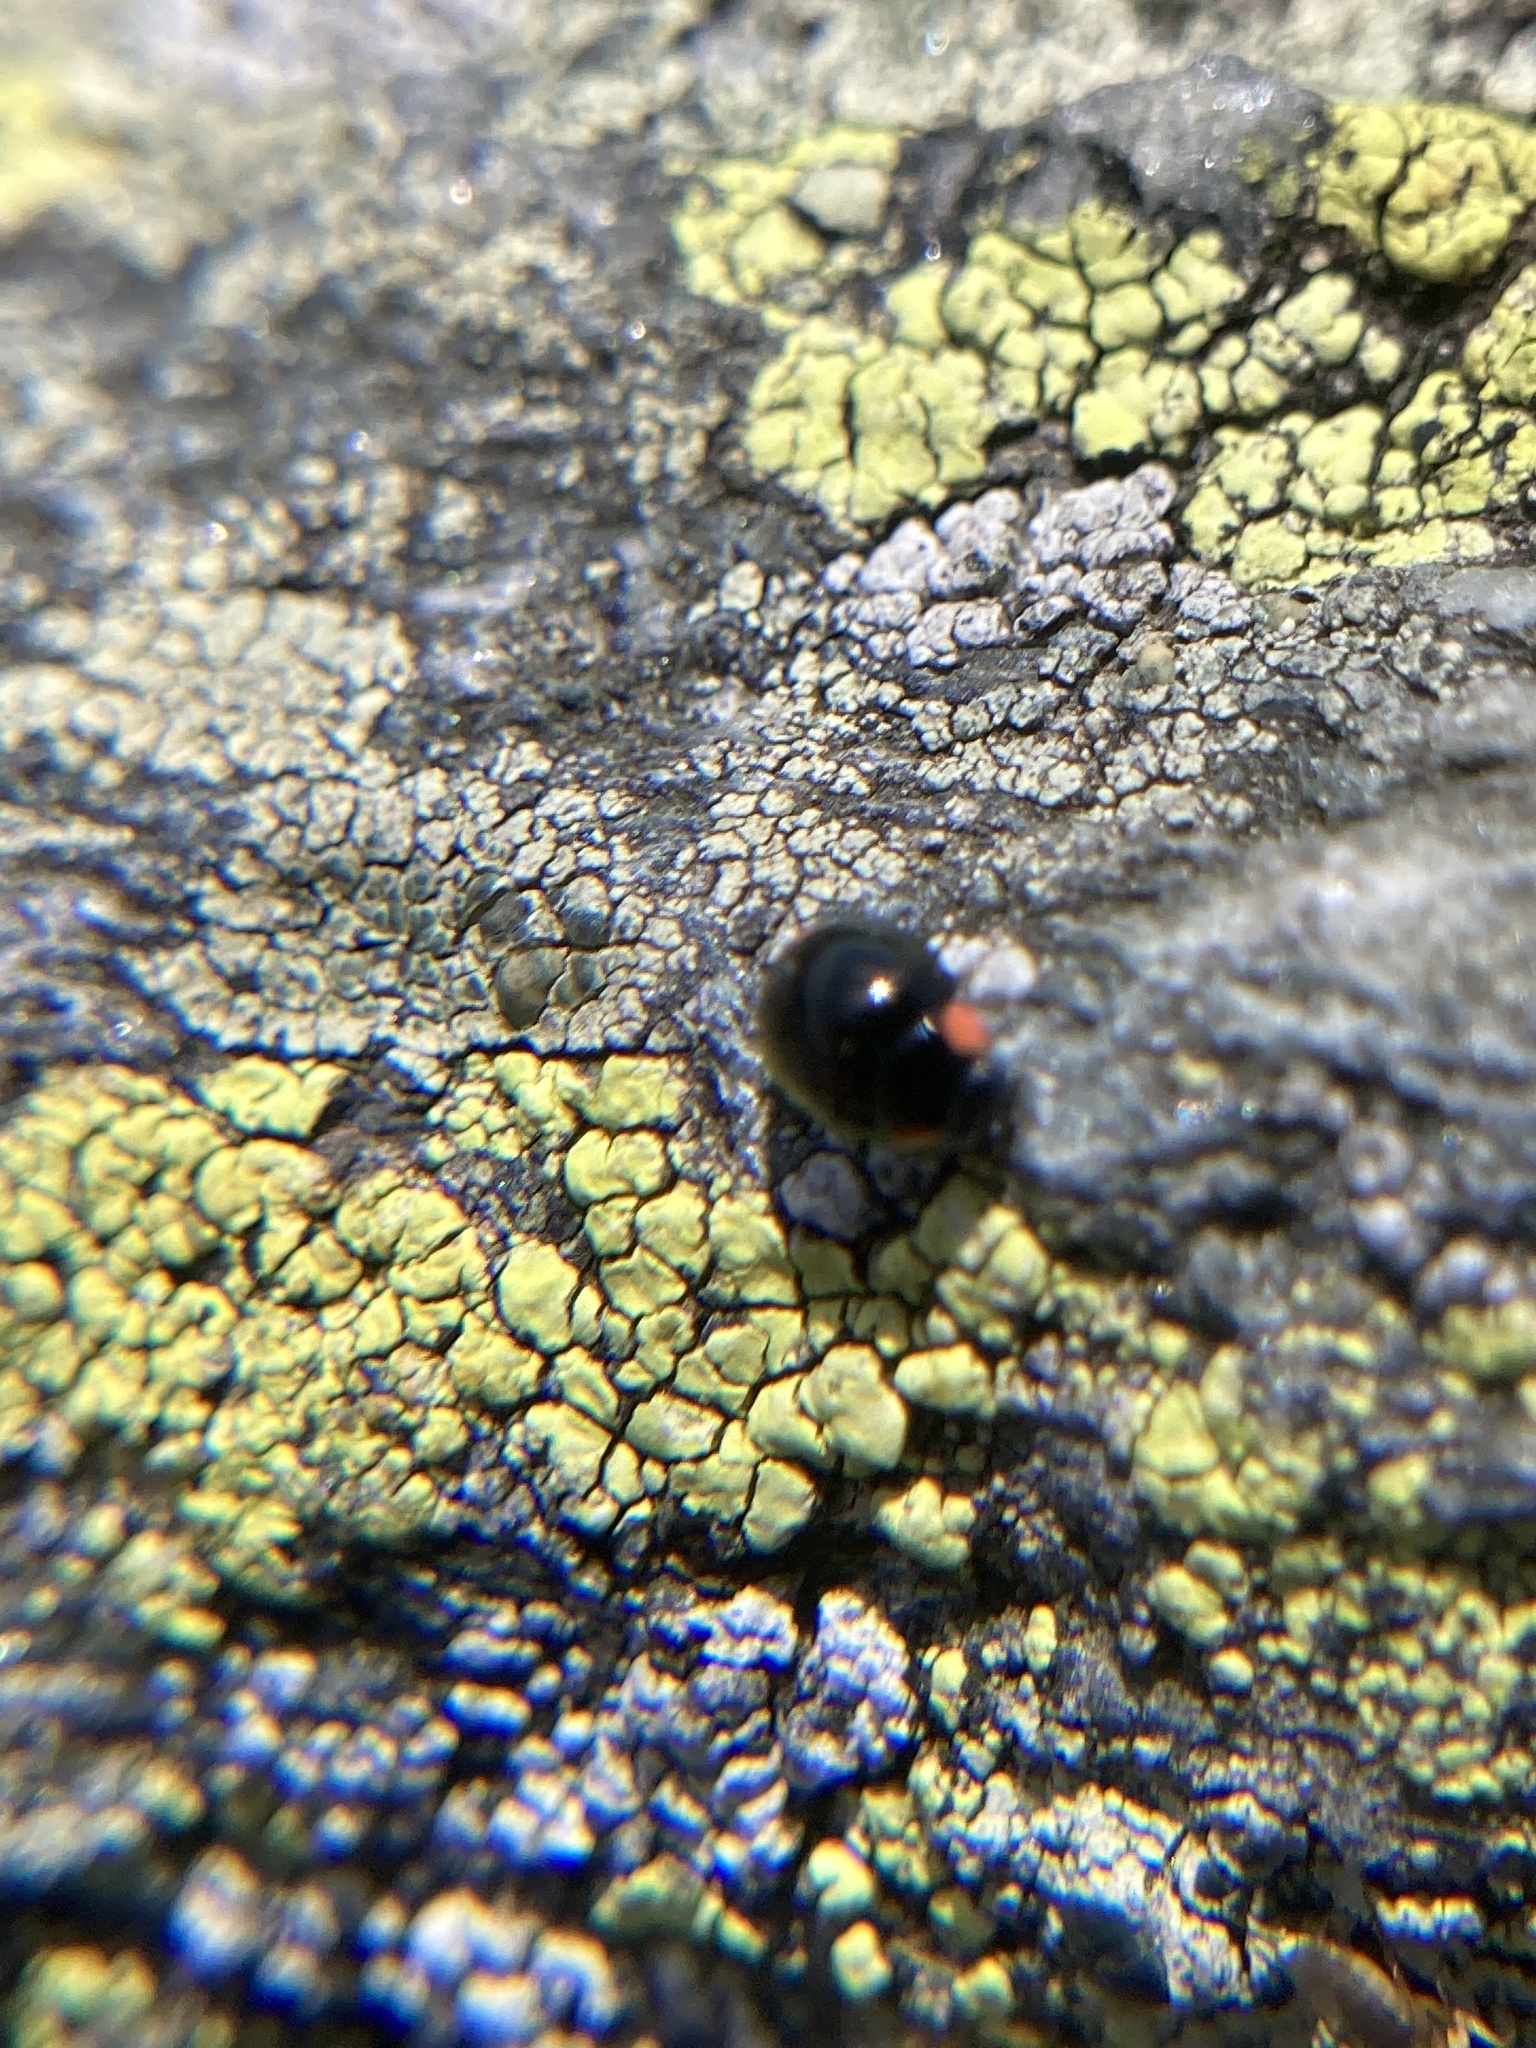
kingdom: Animalia
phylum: Arthropoda
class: Insecta
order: Coleoptera
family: Coccinellidae
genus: Hyperaspis
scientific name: Hyperaspis bigeminata
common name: Bigeminate sigil lady beetle
